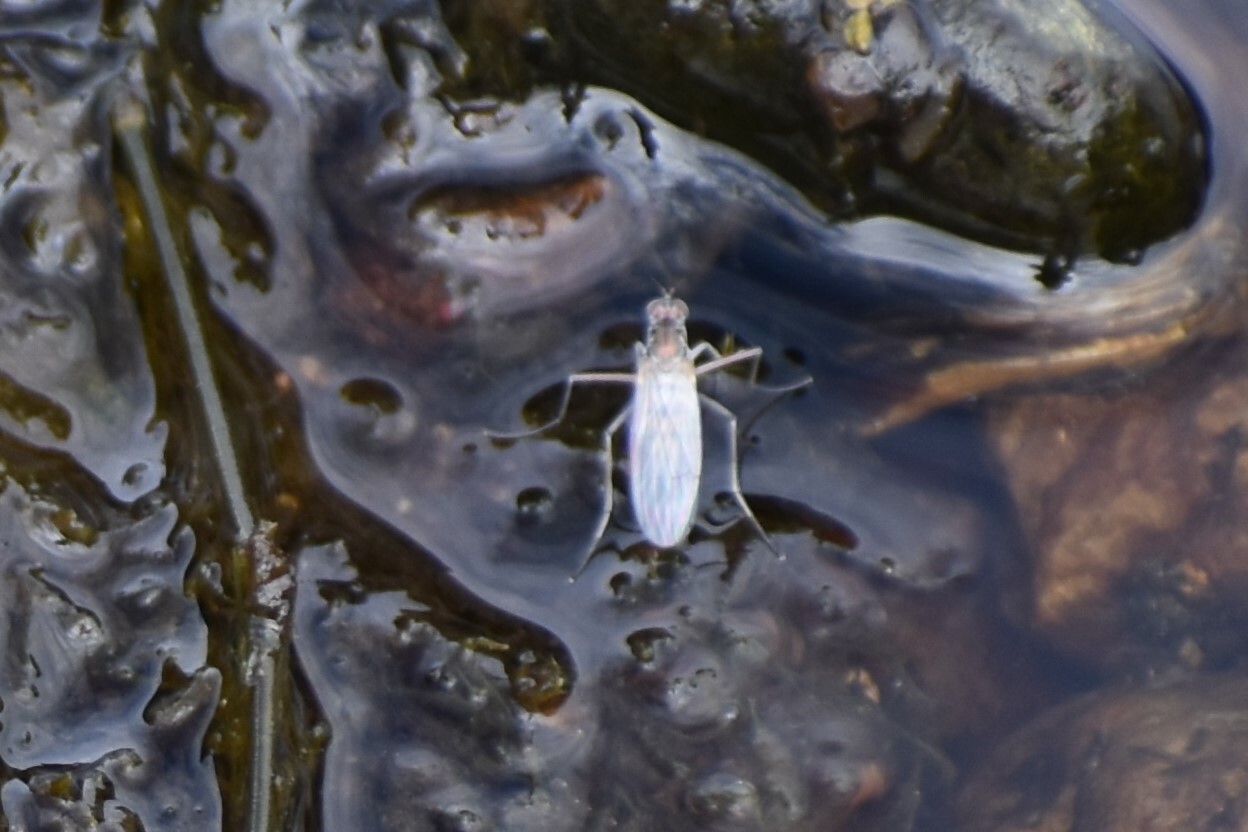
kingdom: Animalia
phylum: Arthropoda
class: Insecta
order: Diptera
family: Dolichopodidae
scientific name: Dolichopodidae
